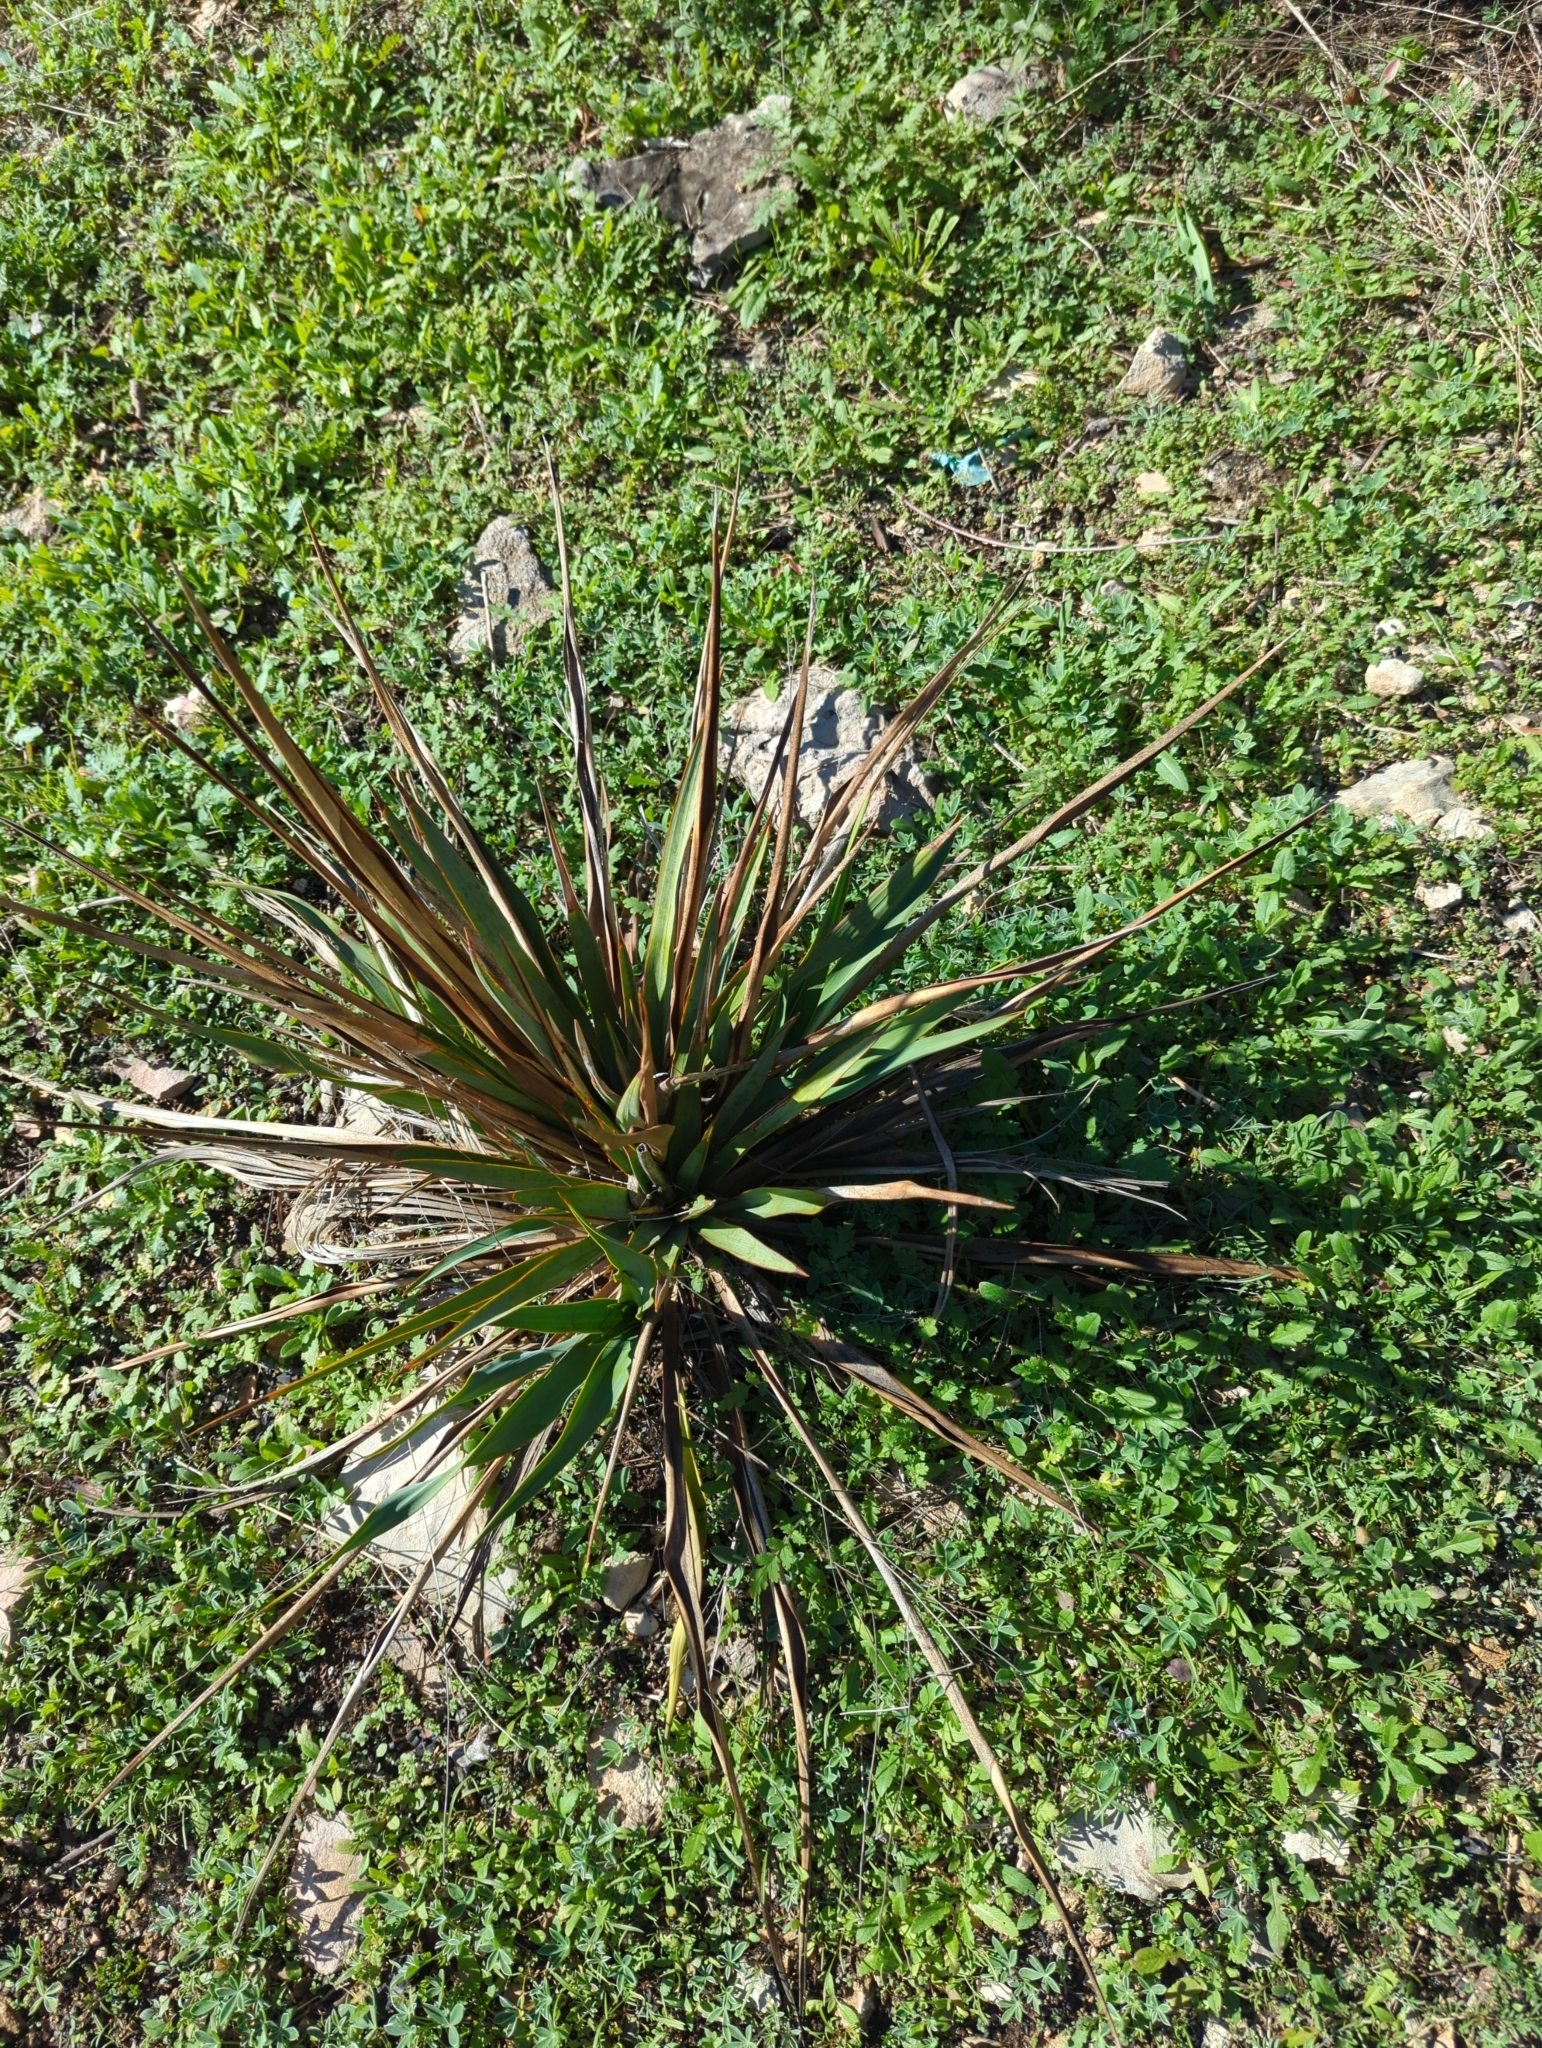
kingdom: Plantae
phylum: Tracheophyta
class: Liliopsida
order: Asparagales
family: Asparagaceae
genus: Yucca
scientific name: Yucca rupicola
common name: Twisted-leaf spanish-dagger
